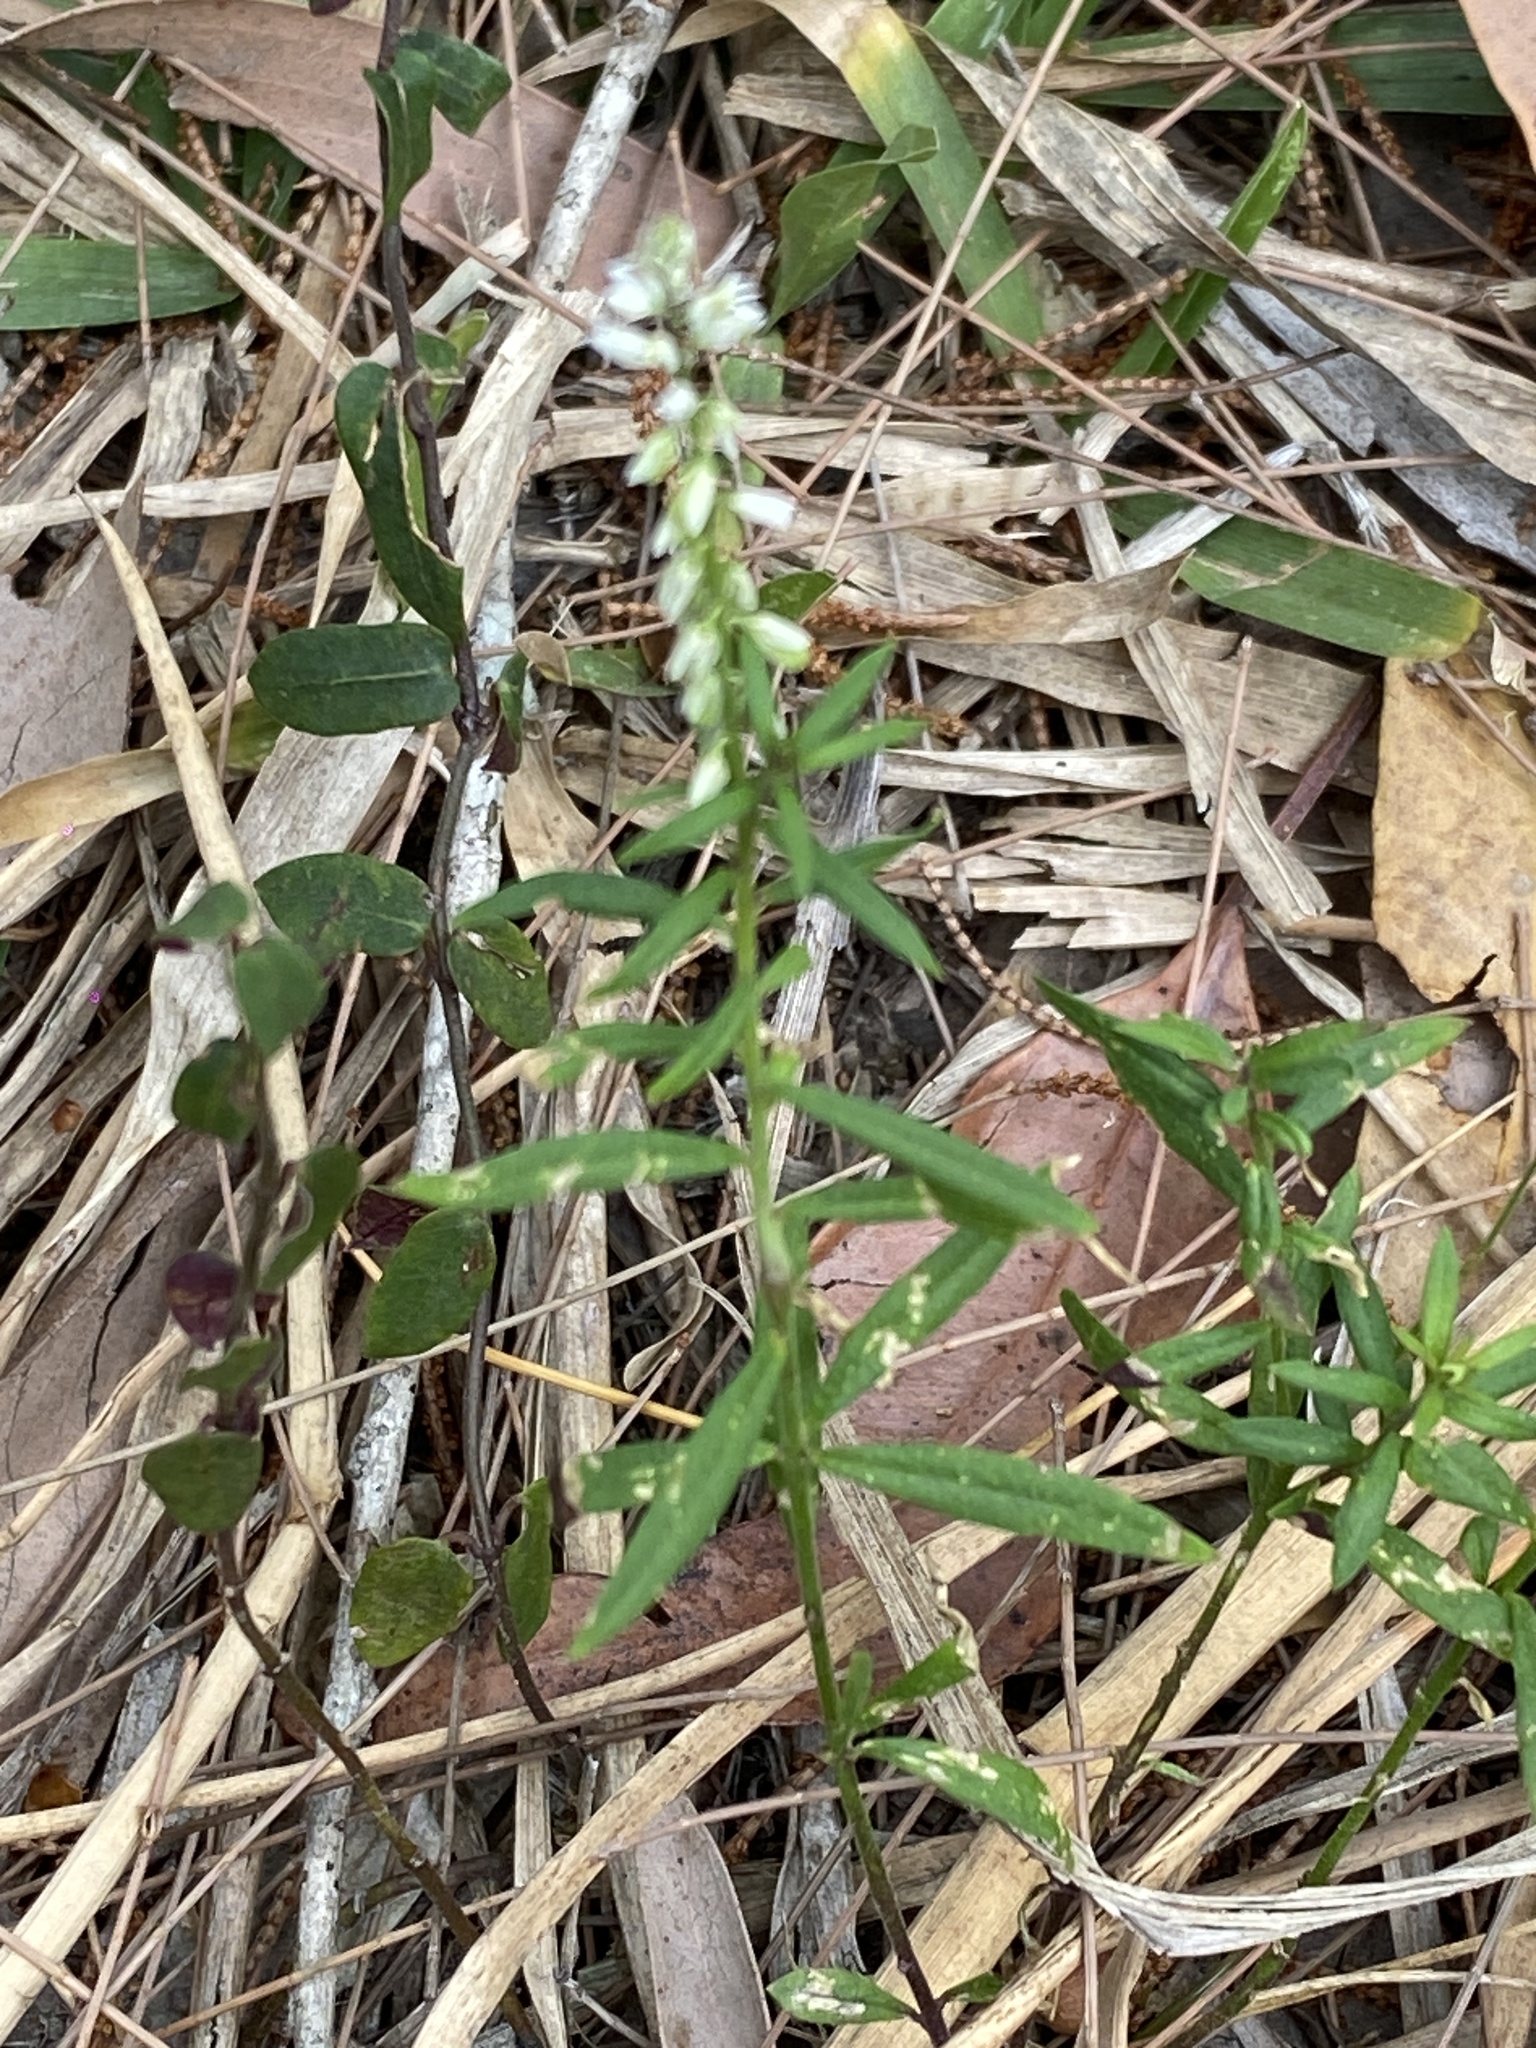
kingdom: Plantae
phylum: Tracheophyta
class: Magnoliopsida
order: Fabales
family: Polygalaceae
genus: Polygala
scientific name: Polygala paniculata
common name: Orosne
